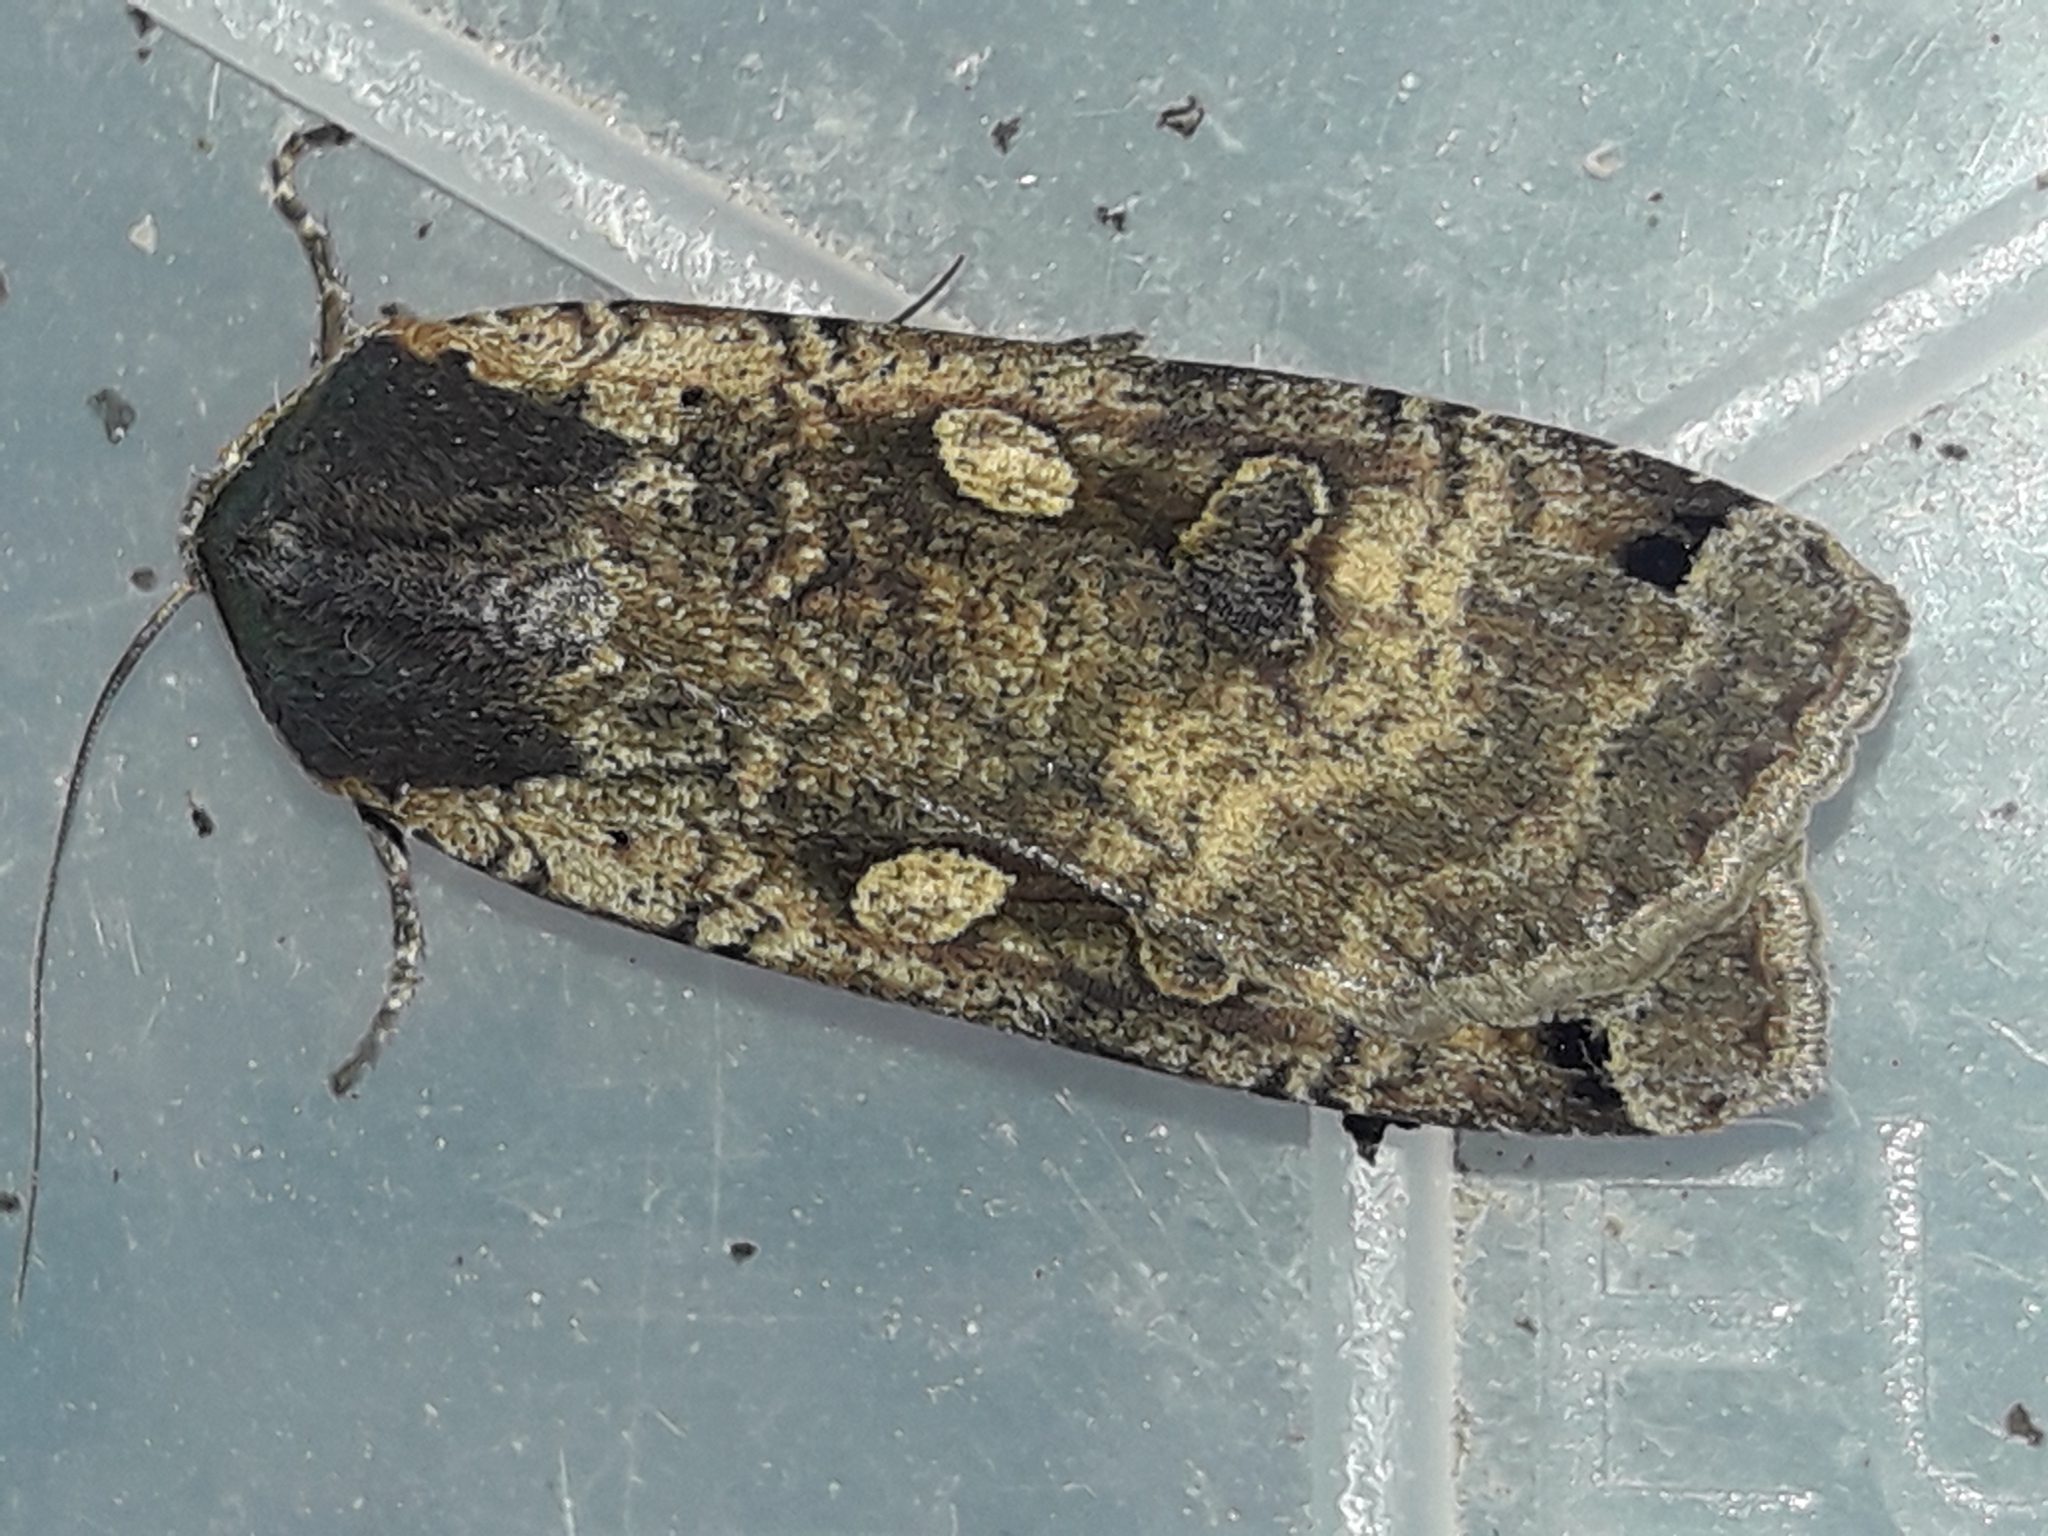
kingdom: Animalia
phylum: Arthropoda
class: Insecta
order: Lepidoptera
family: Noctuidae
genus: Noctua
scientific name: Noctua pronuba
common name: Large yellow underwing
